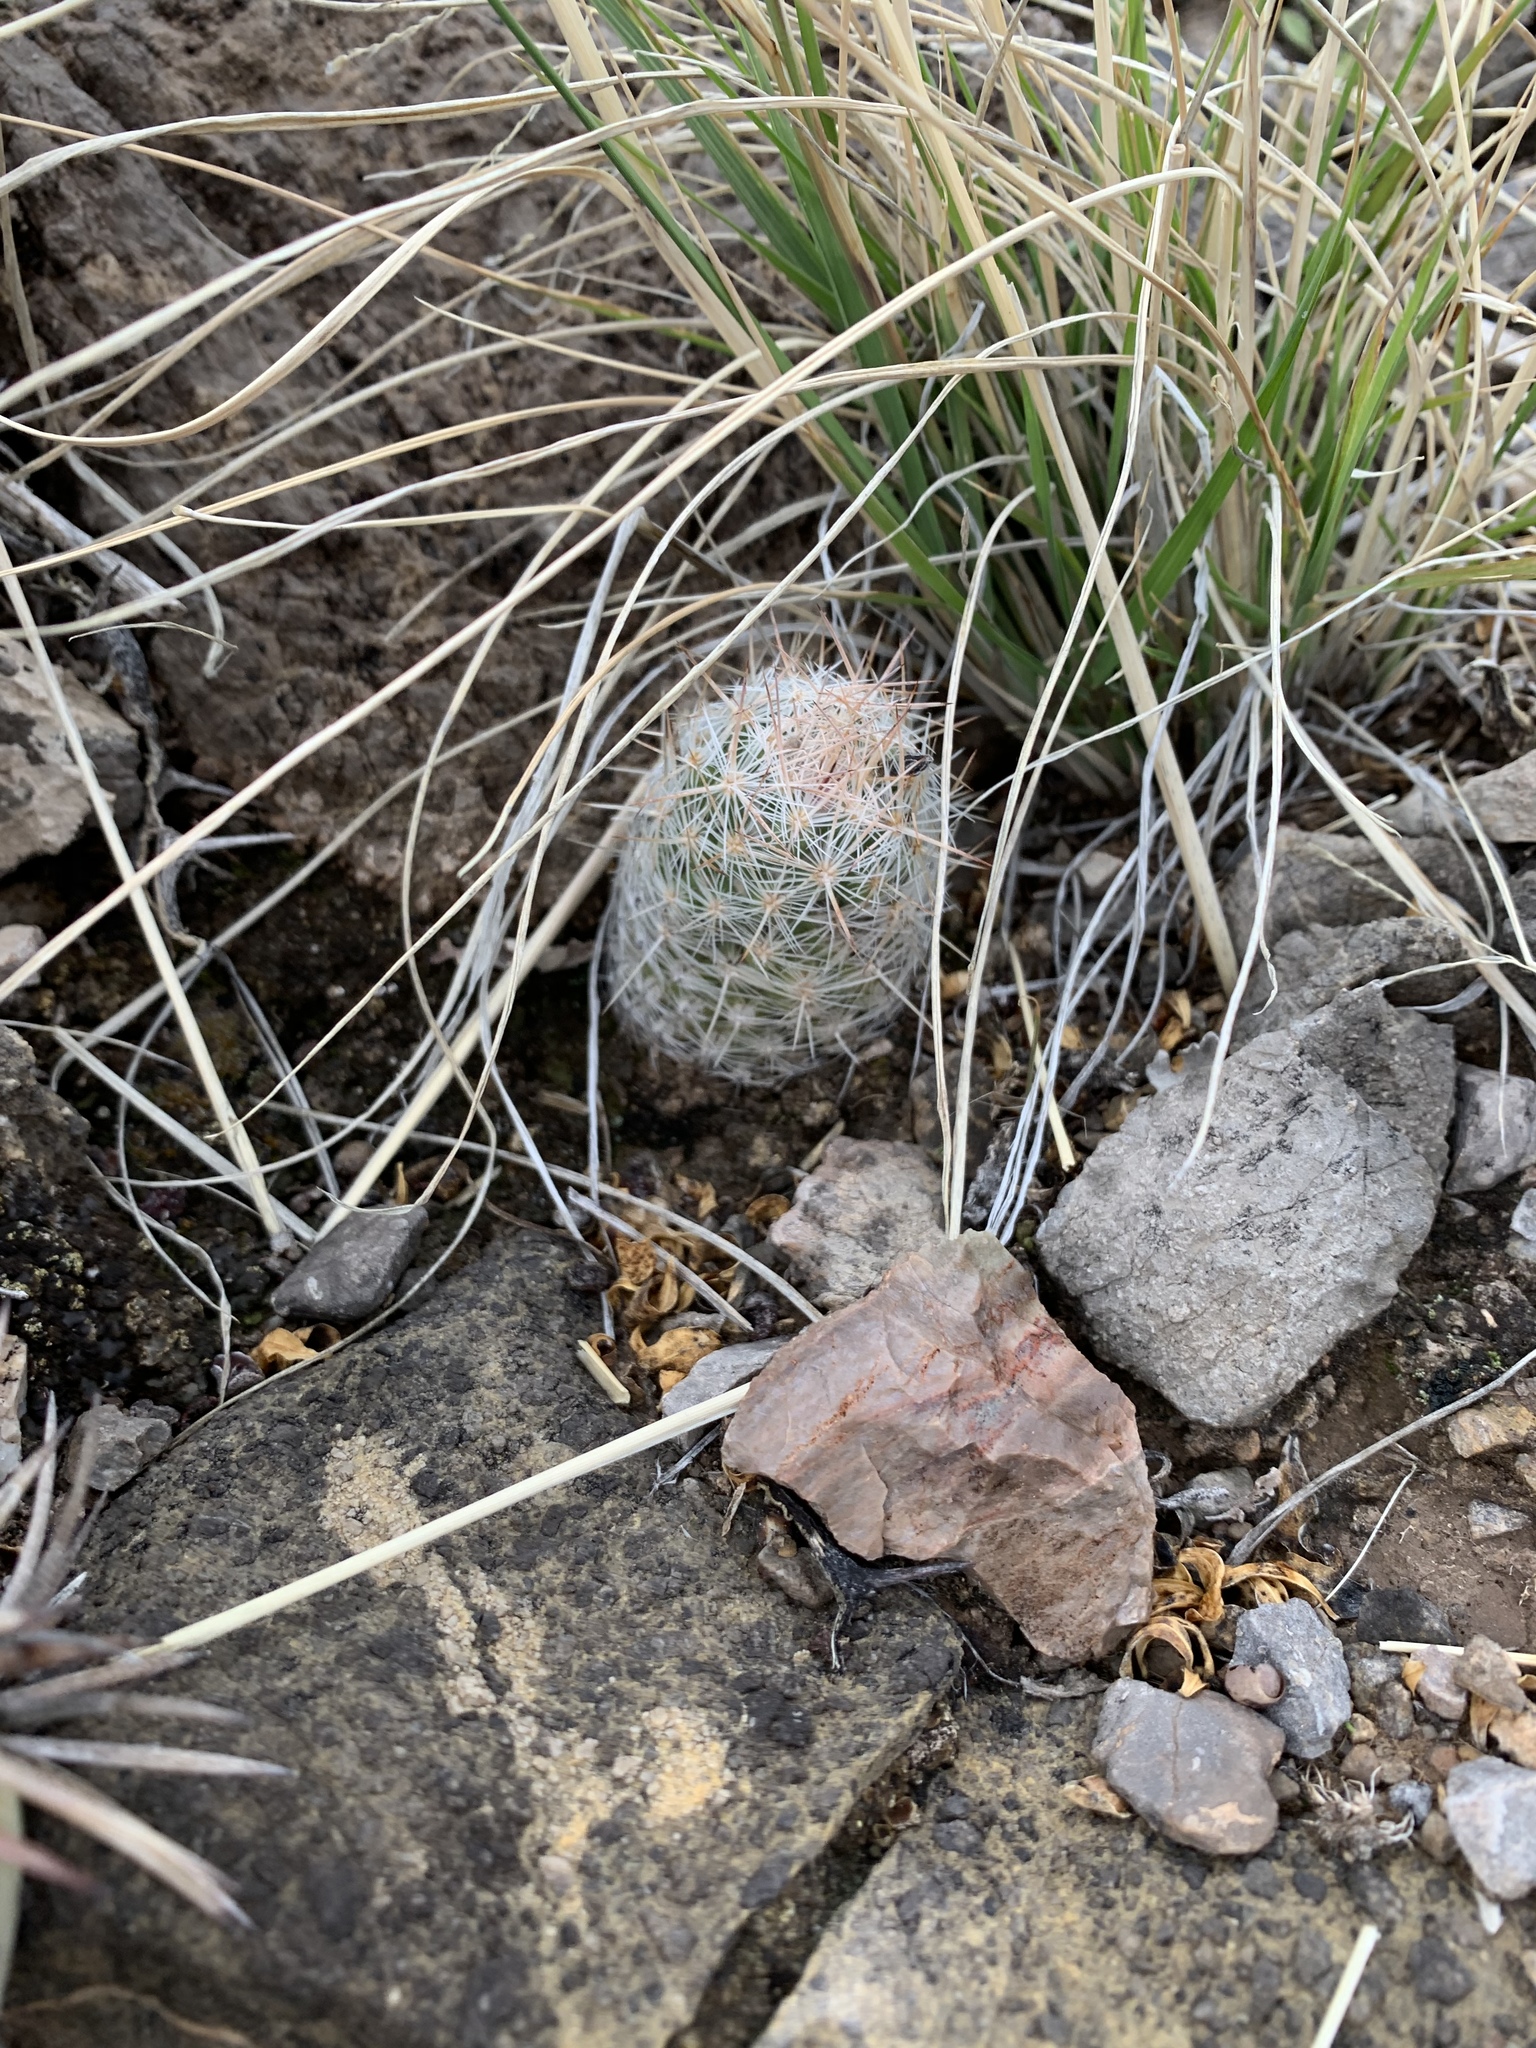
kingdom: Plantae
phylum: Tracheophyta
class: Magnoliopsida
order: Caryophyllales
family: Cactaceae
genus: Pelecyphora
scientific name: Pelecyphora tuberculosa
